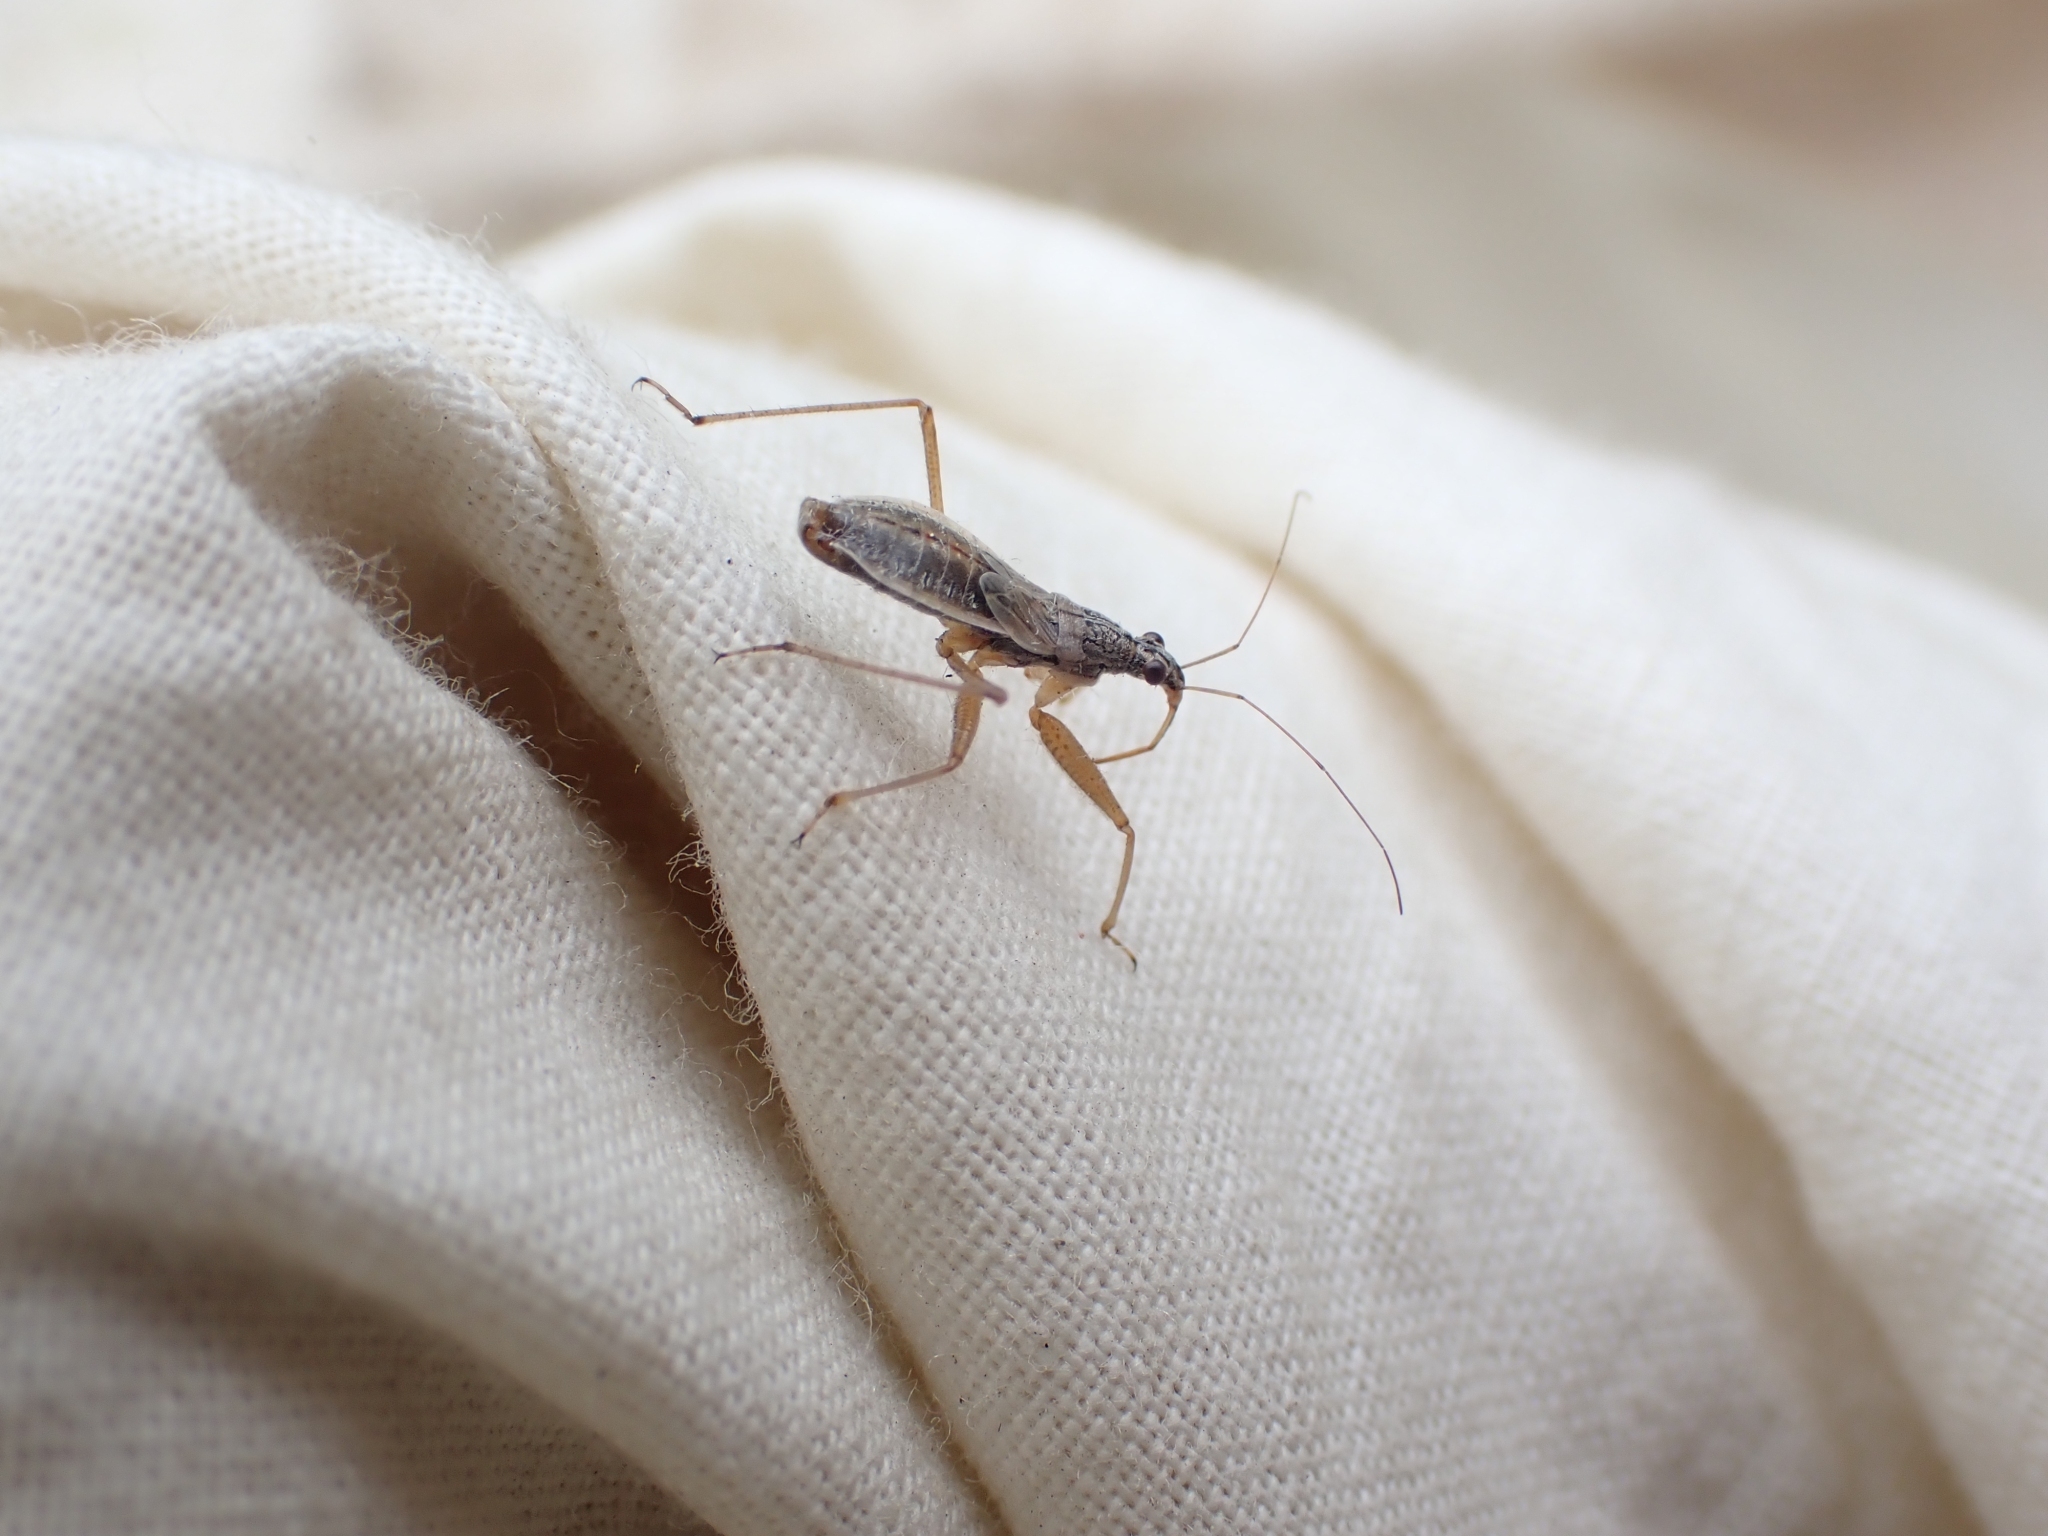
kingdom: Animalia
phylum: Arthropoda
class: Insecta
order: Hemiptera
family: Nabidae
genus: Nabis
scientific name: Nabis
